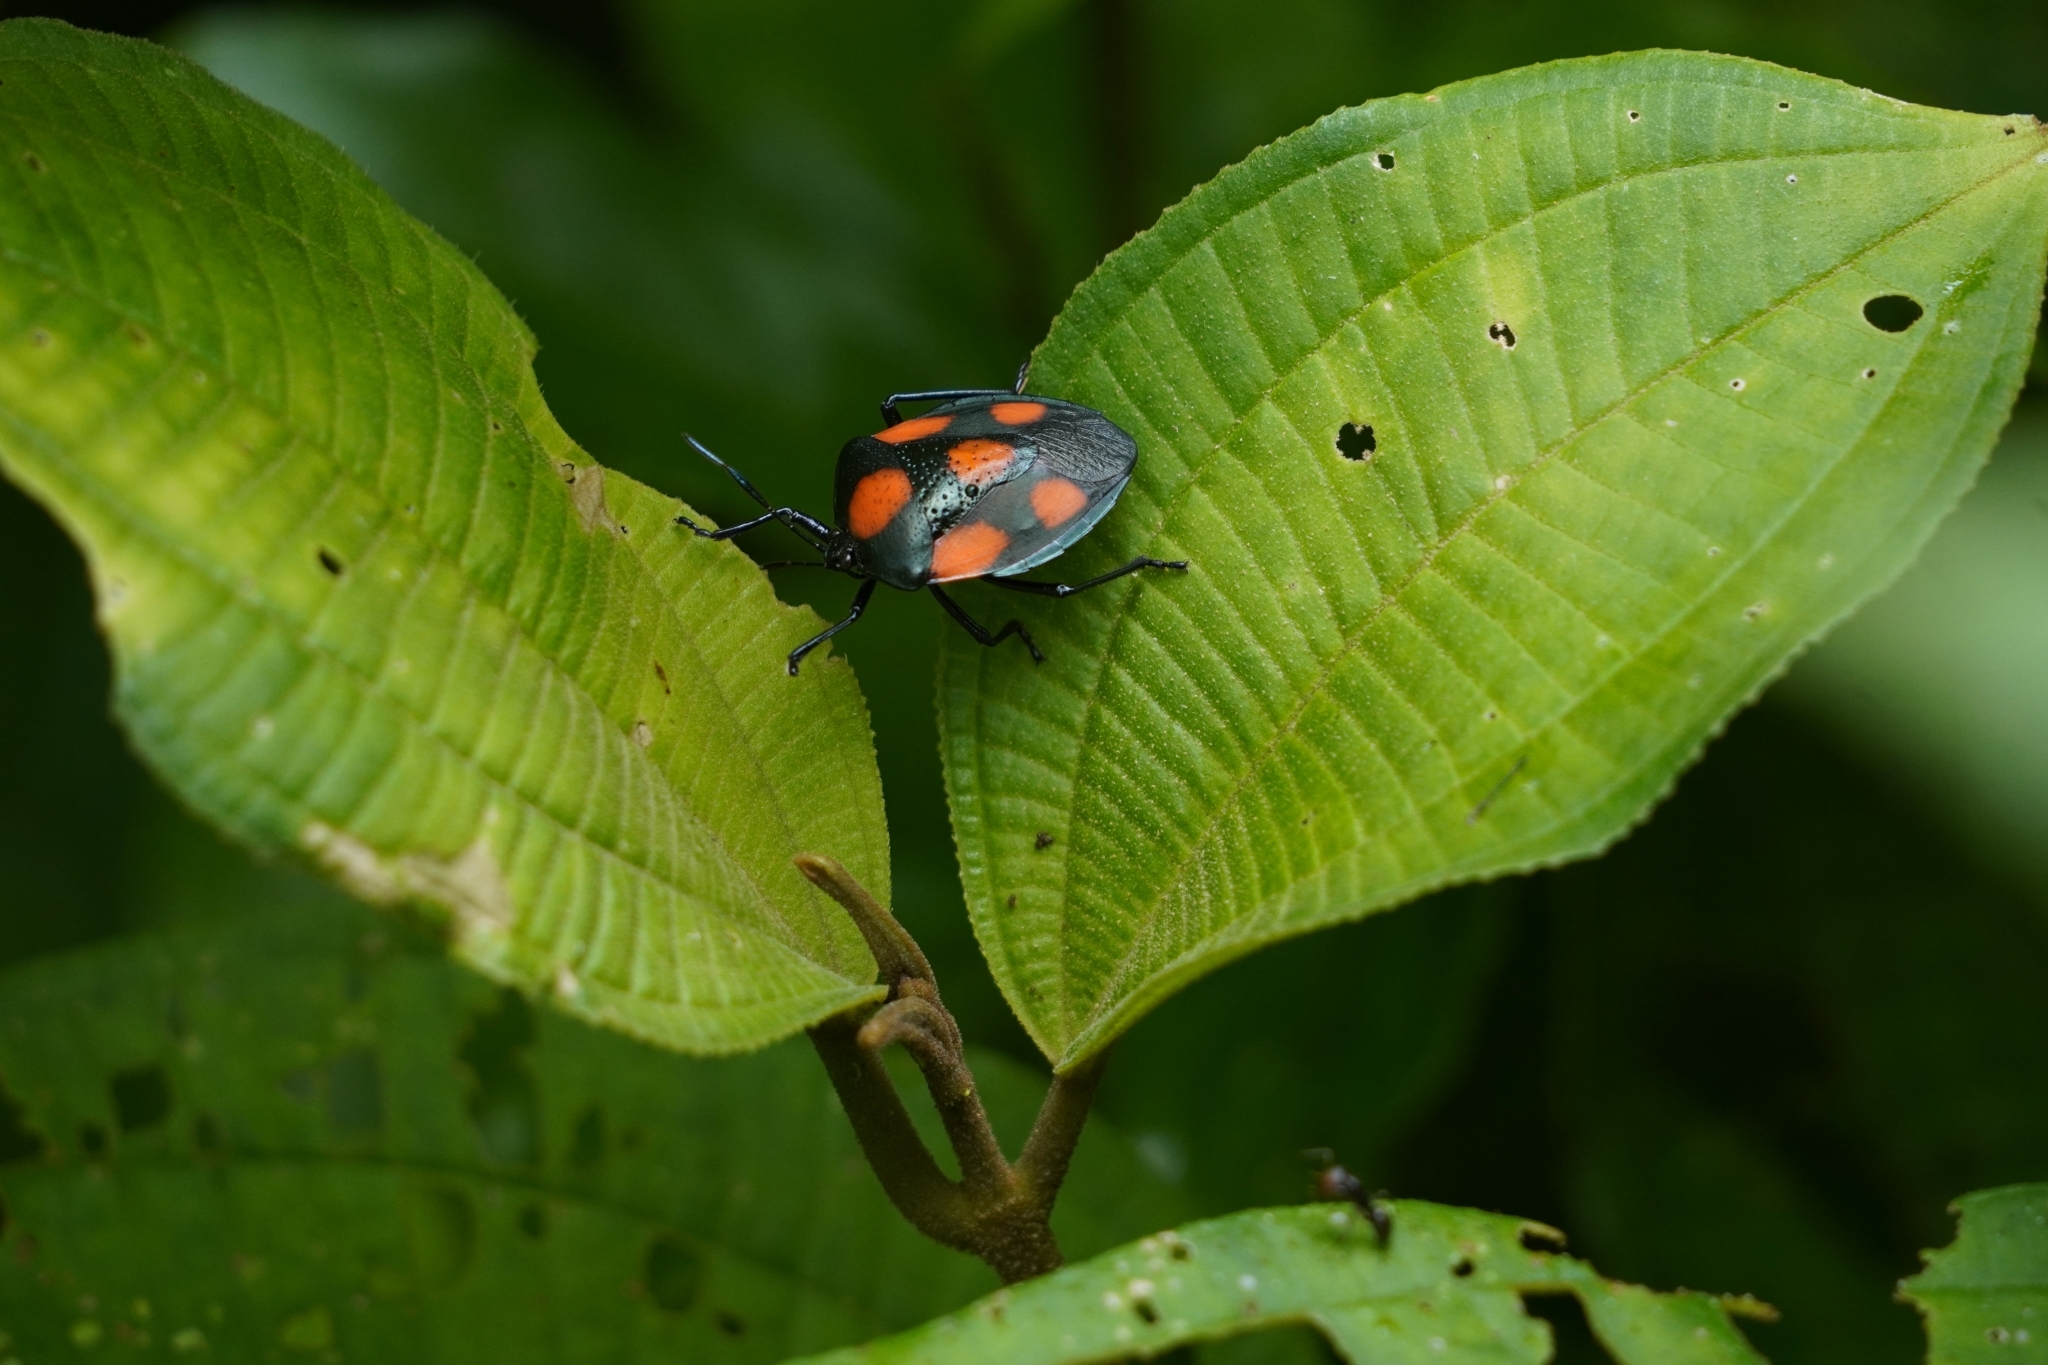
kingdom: Animalia
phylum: Arthropoda
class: Insecta
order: Hemiptera
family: Pentatomidae
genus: Brachystethus
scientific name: Brachystethus rubromaculatus
